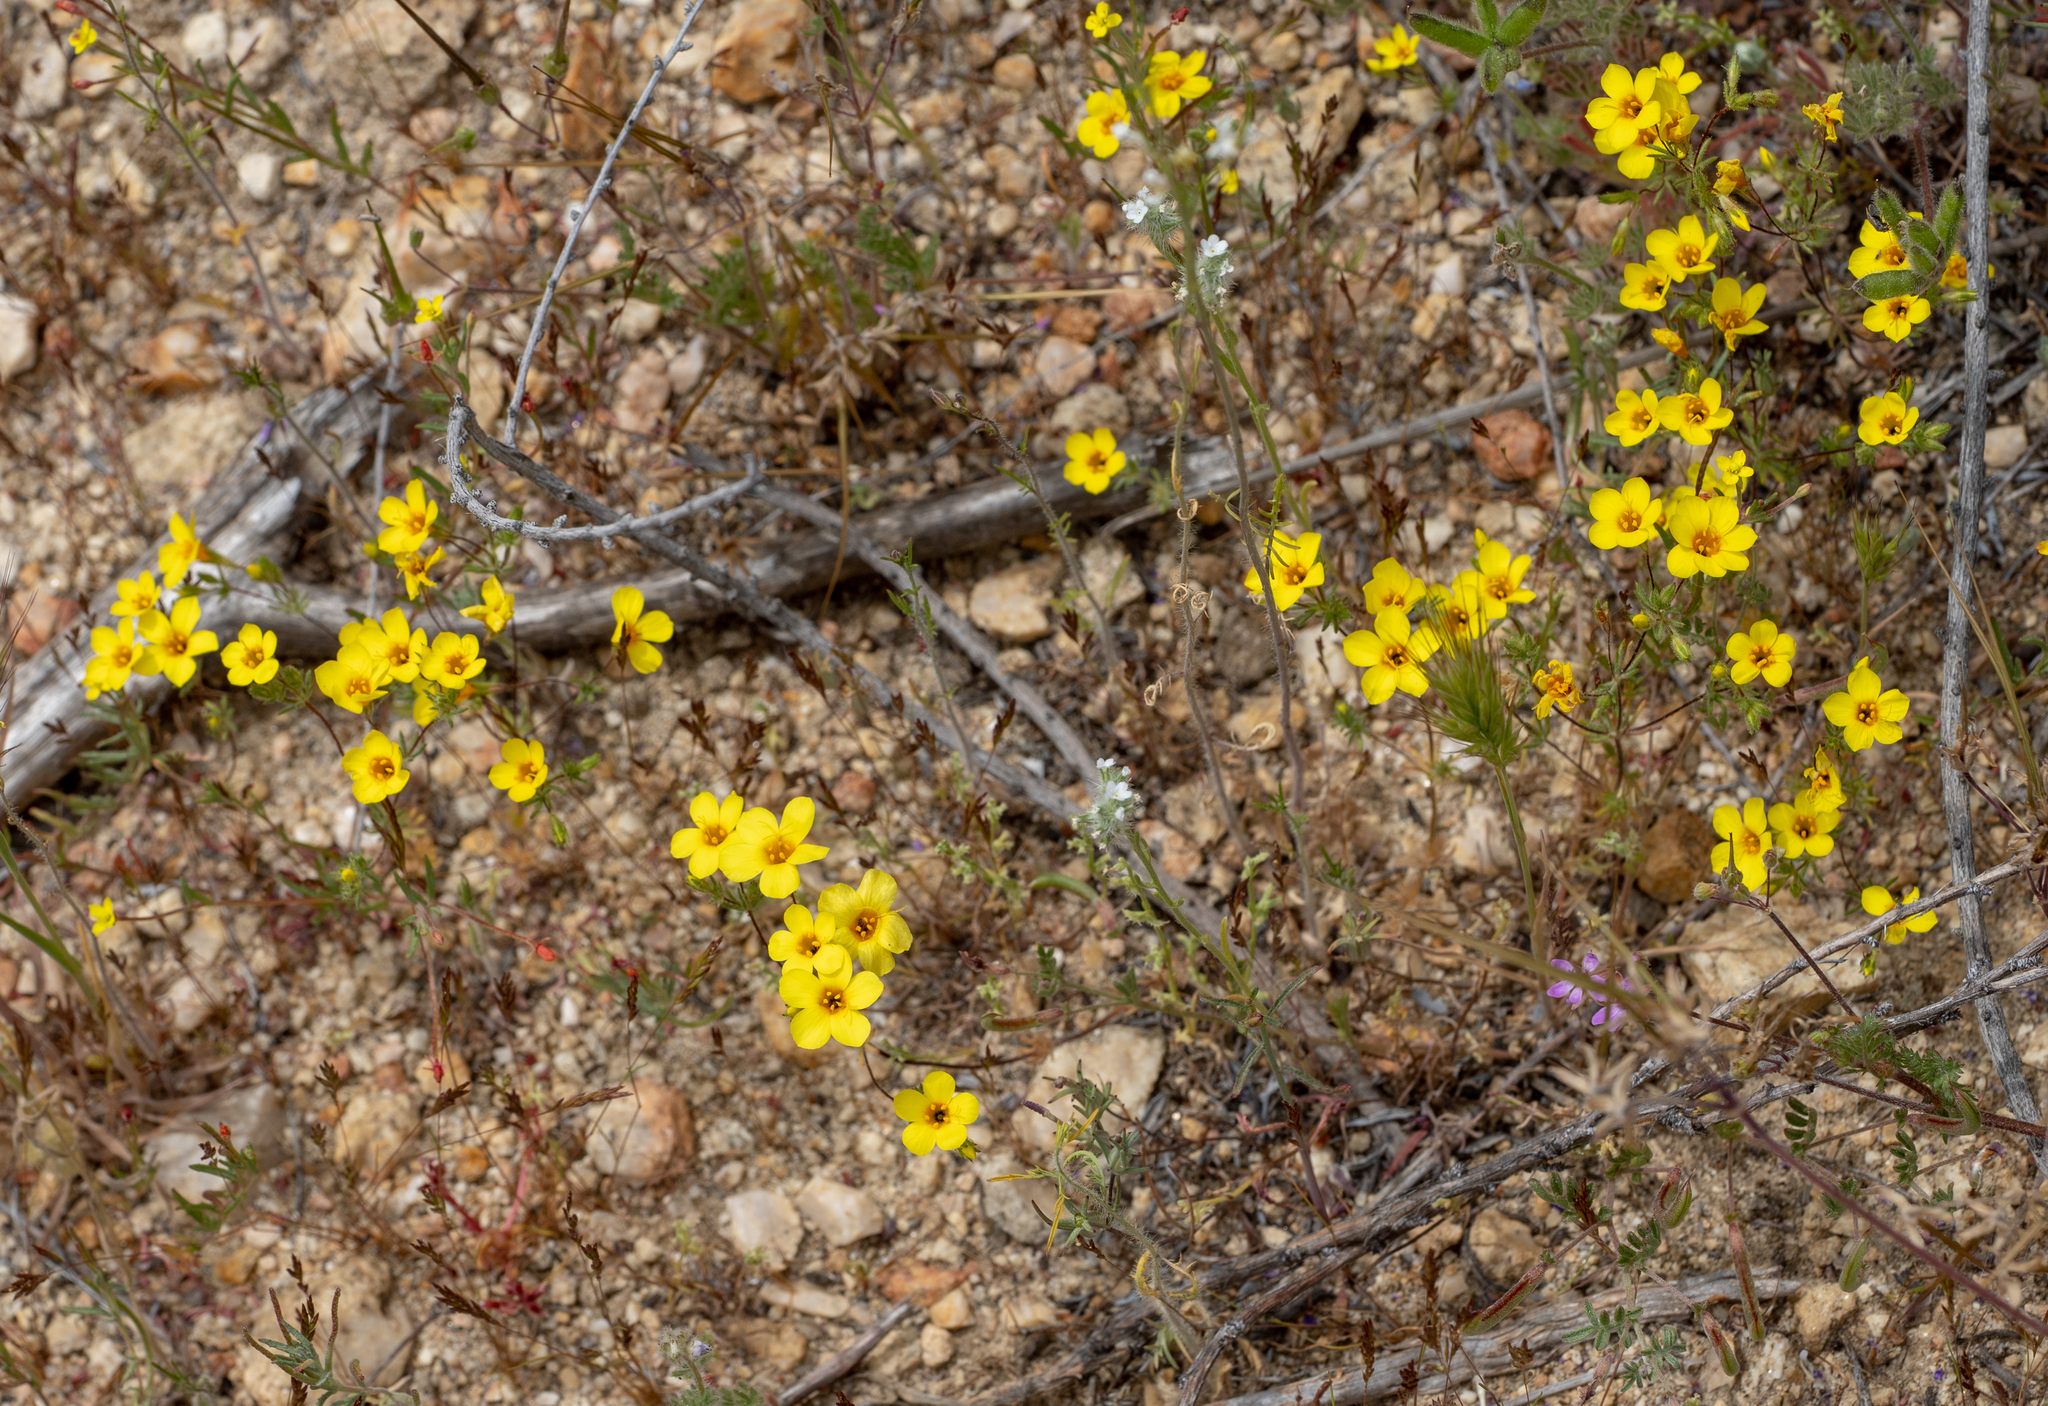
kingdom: Plantae
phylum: Tracheophyta
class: Magnoliopsida
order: Ericales
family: Polemoniaceae
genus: Leptosiphon
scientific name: Leptosiphon chrysanthus
